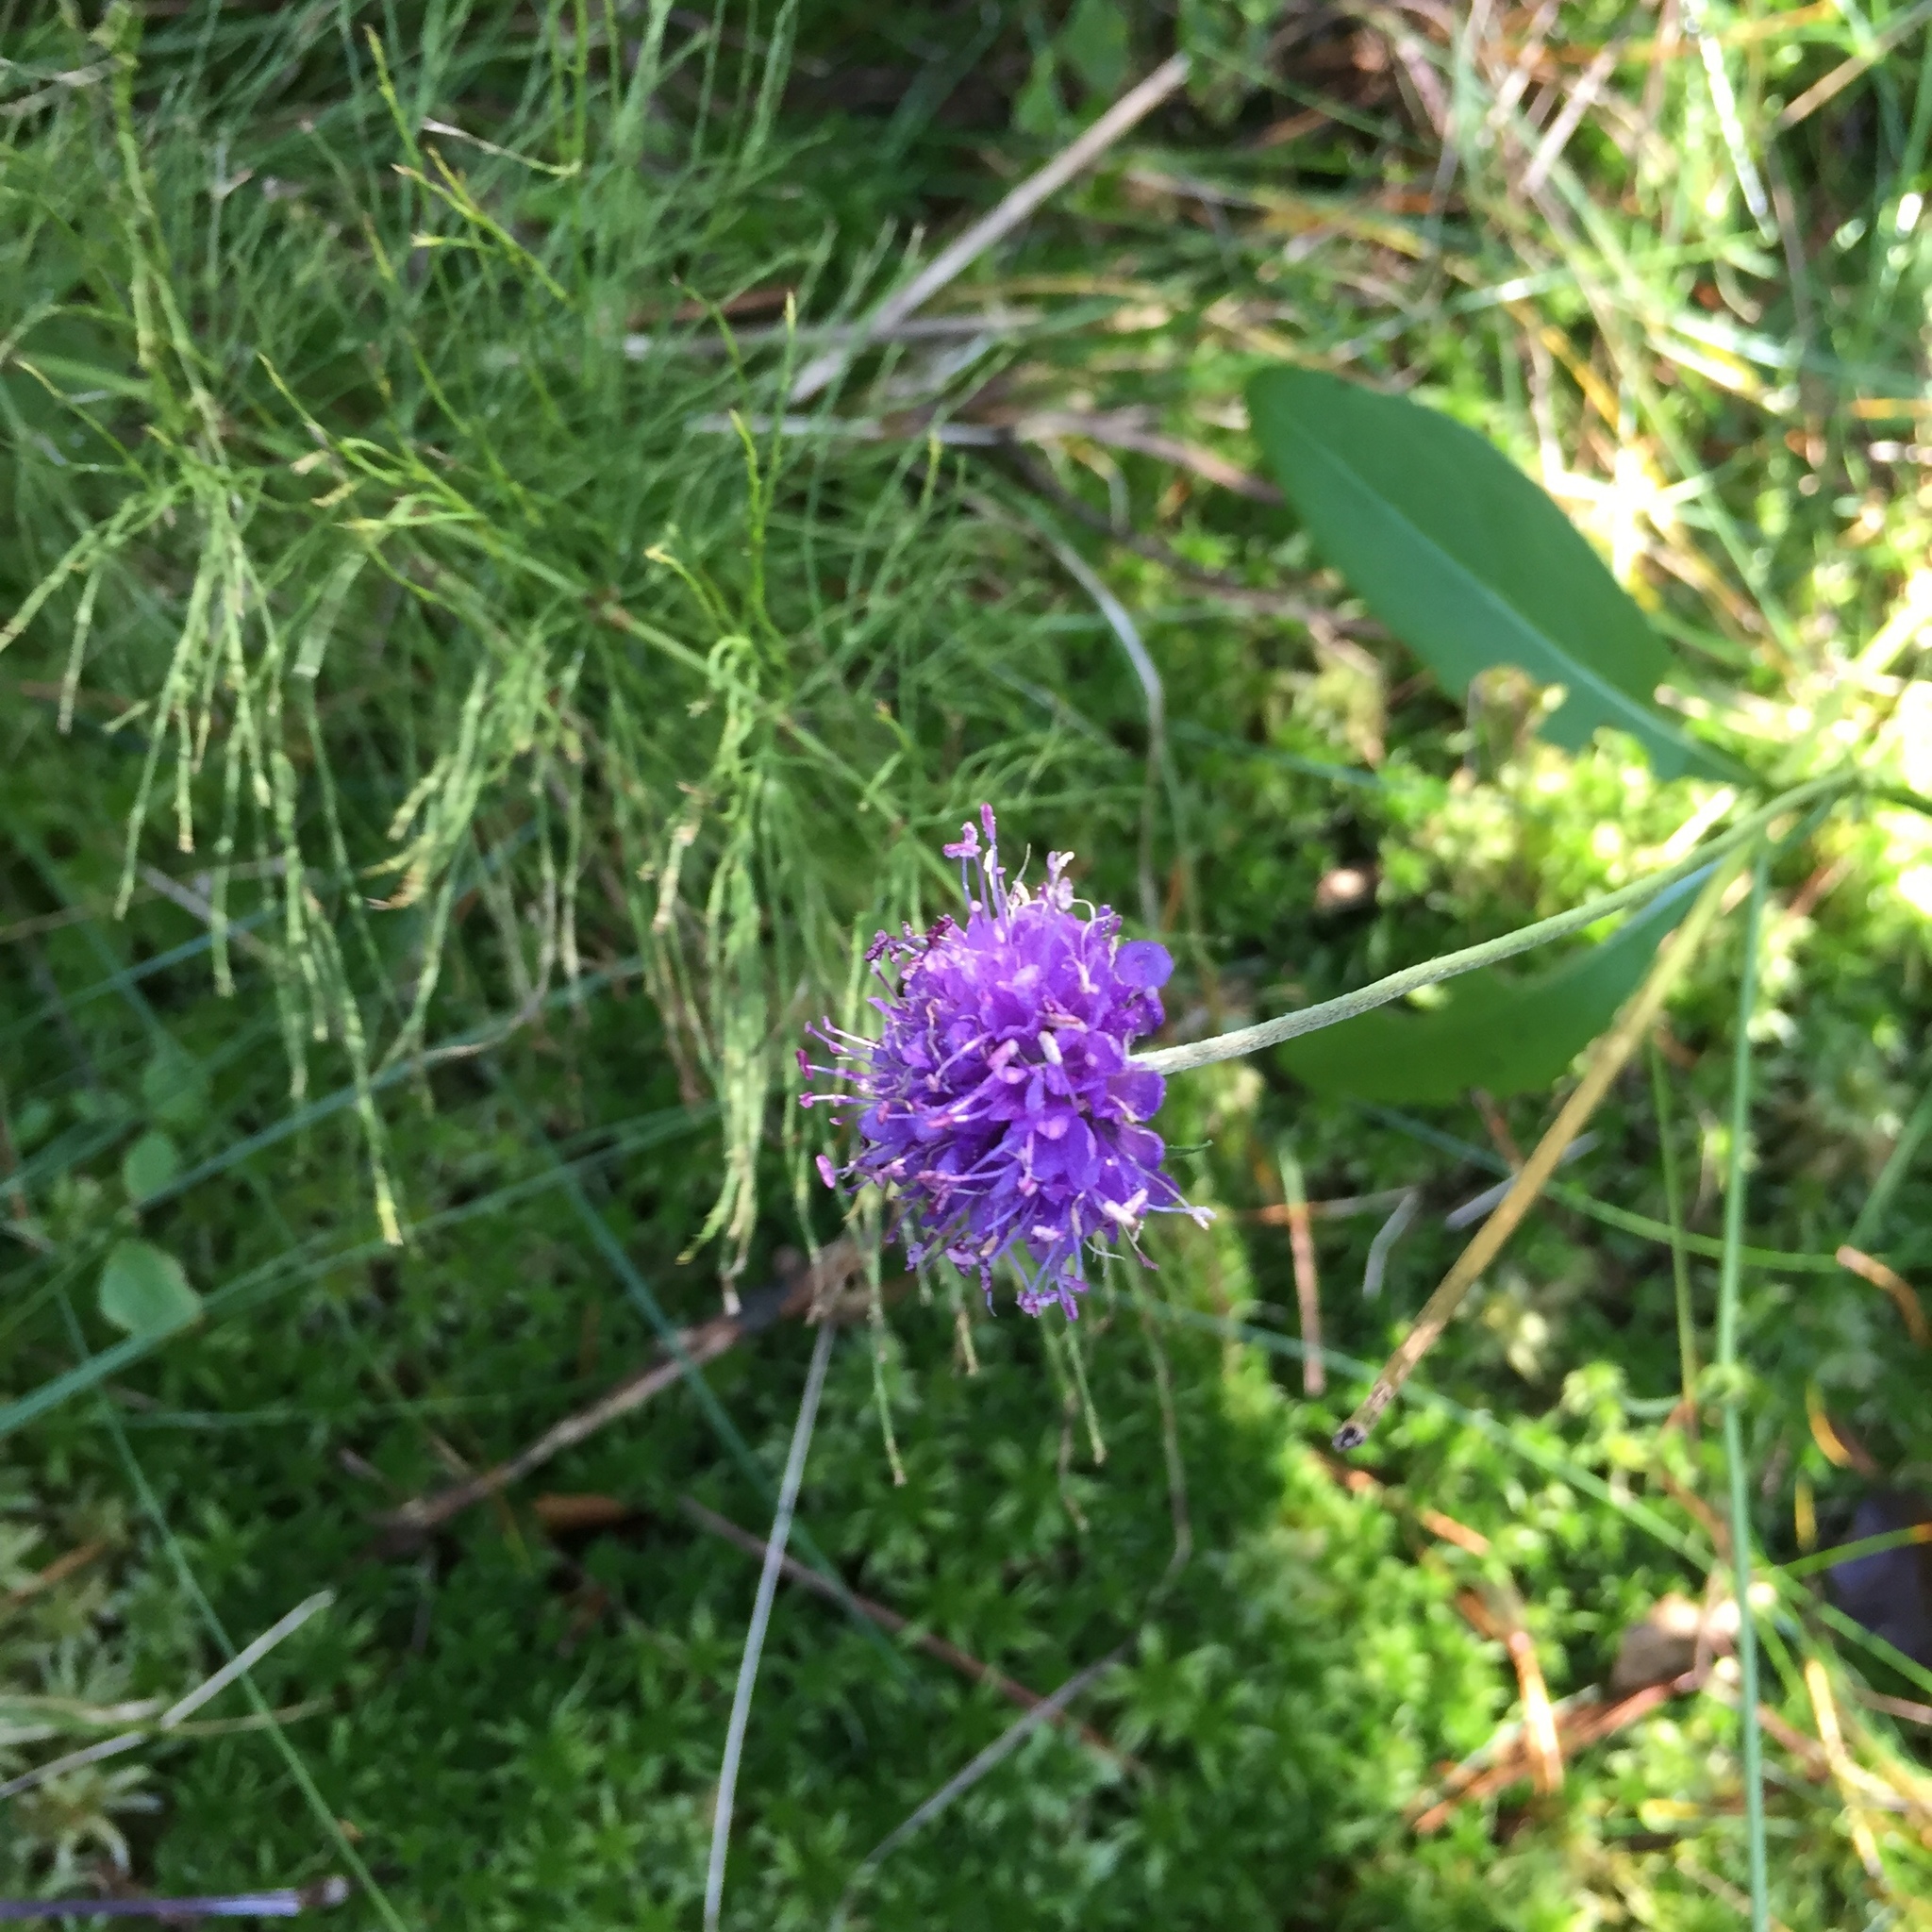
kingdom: Plantae
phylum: Tracheophyta
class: Magnoliopsida
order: Dipsacales
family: Caprifoliaceae
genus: Succisa
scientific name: Succisa pratensis
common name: Devil's-bit
